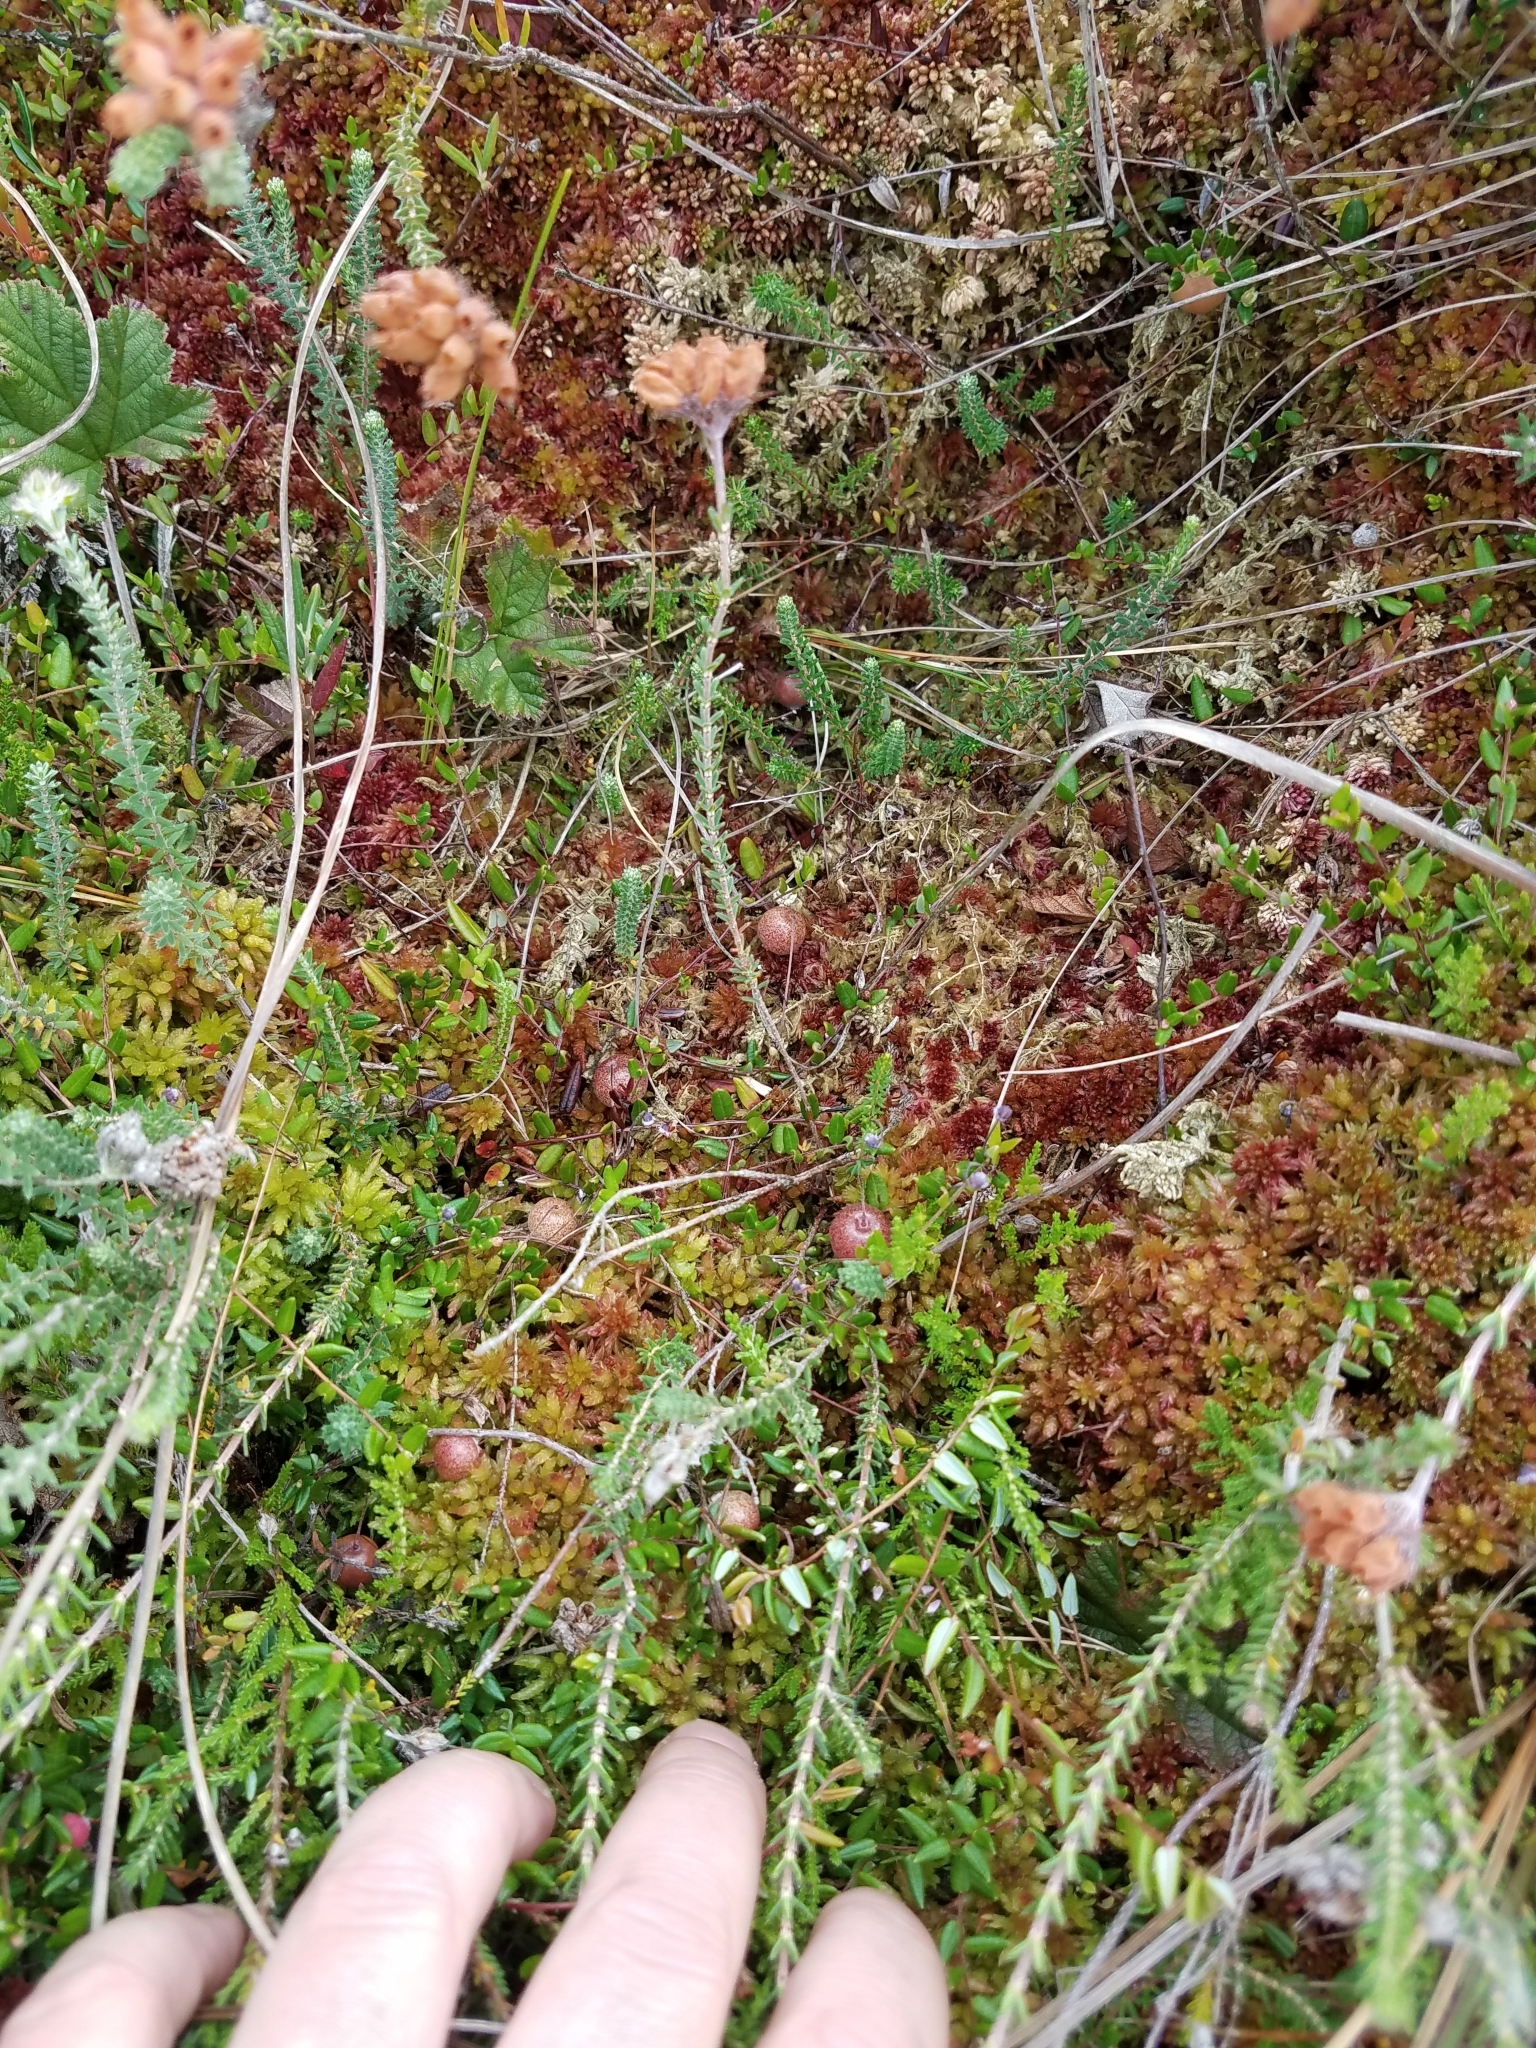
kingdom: Plantae
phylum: Tracheophyta
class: Magnoliopsida
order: Ericales
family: Ericaceae
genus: Vaccinium
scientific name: Vaccinium oxycoccos
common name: Cranberry
